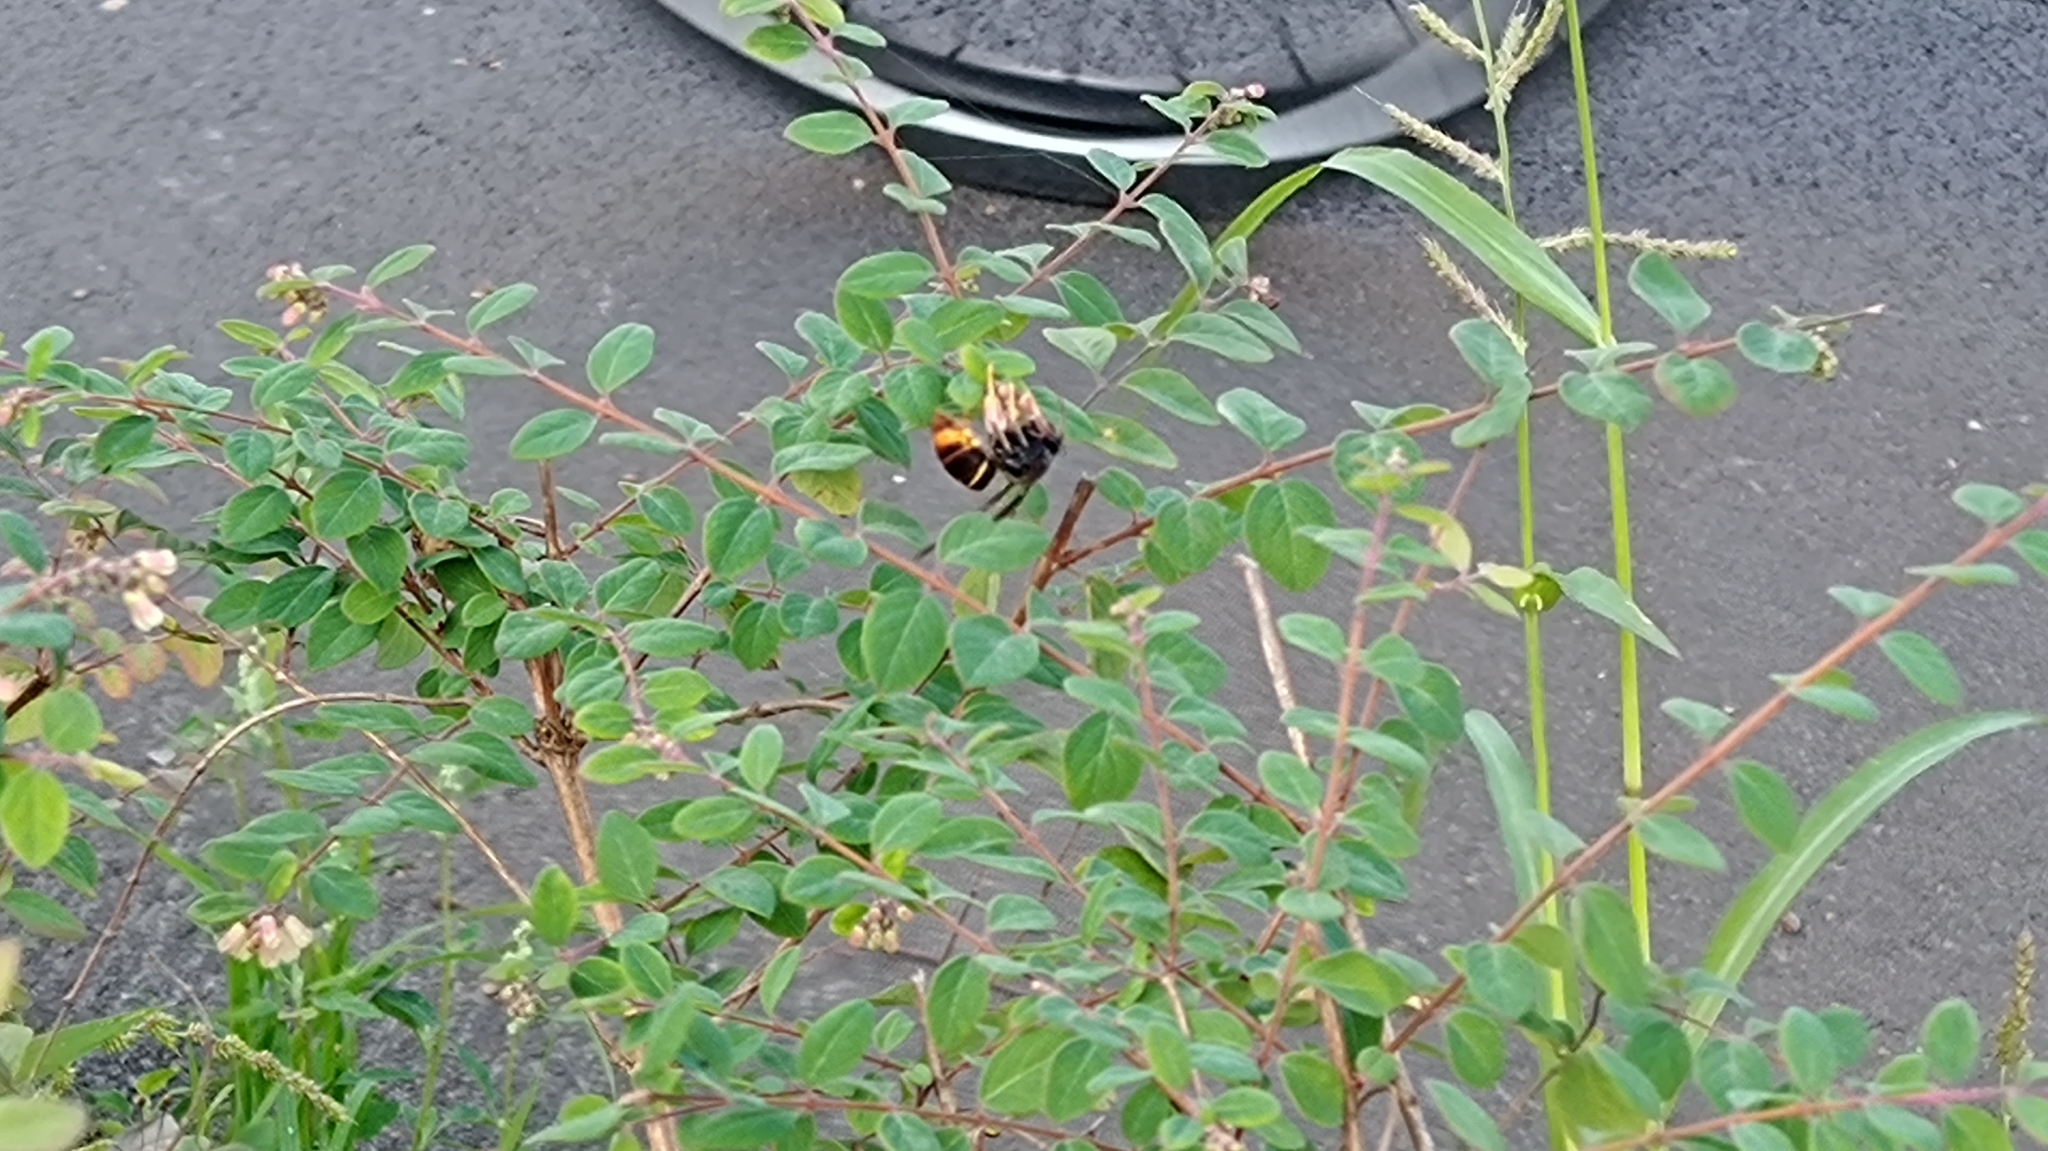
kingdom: Animalia
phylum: Arthropoda
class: Insecta
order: Hymenoptera
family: Vespidae
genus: Vespa
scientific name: Vespa velutina
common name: Asian hornet
